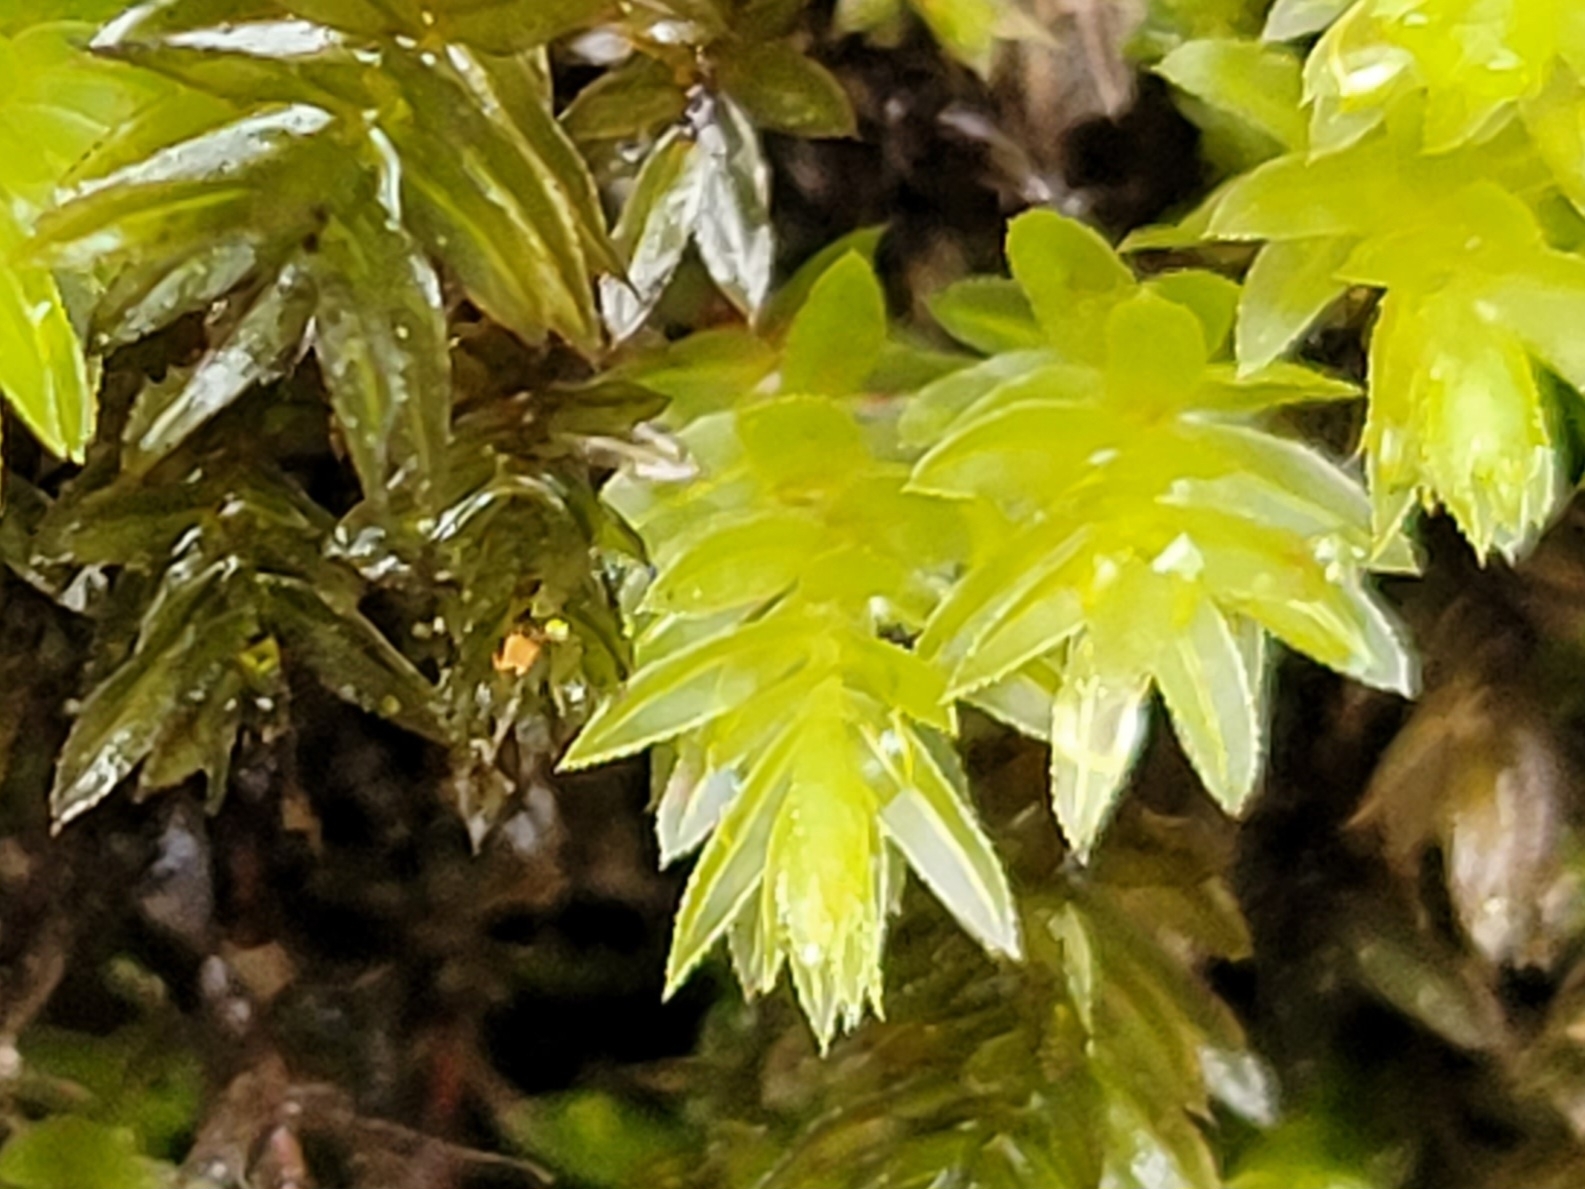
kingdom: Plantae
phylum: Bryophyta
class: Bryopsida
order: Bryales
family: Mniaceae
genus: Mnium
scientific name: Mnium hornum
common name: Swan's-neck leafy moss
